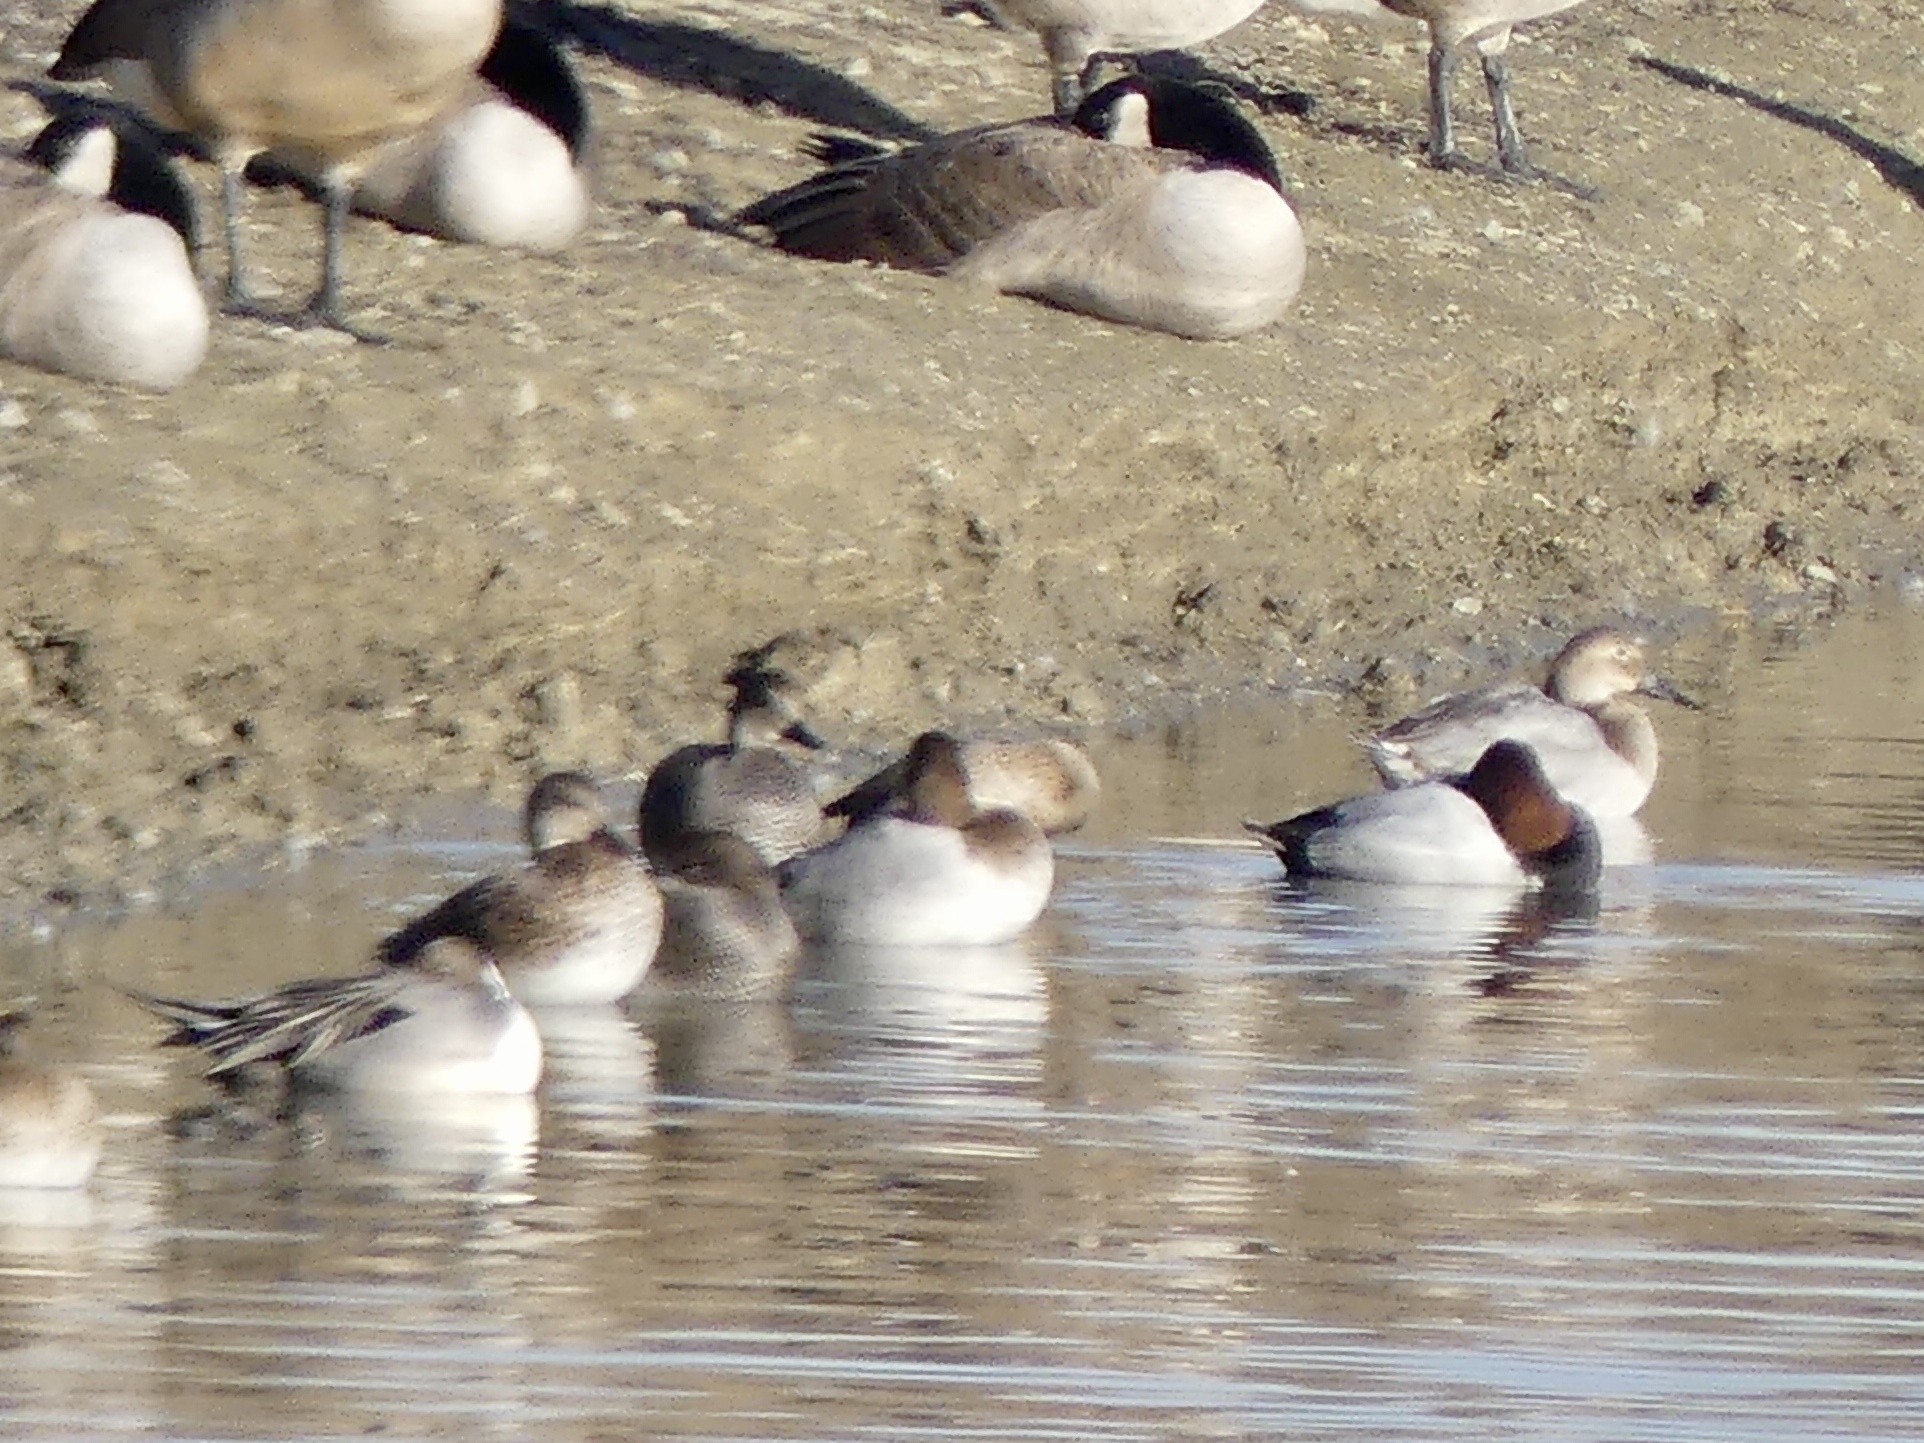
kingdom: Animalia
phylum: Chordata
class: Aves
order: Anseriformes
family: Anatidae
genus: Aythya
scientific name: Aythya valisineria
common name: Canvasback
